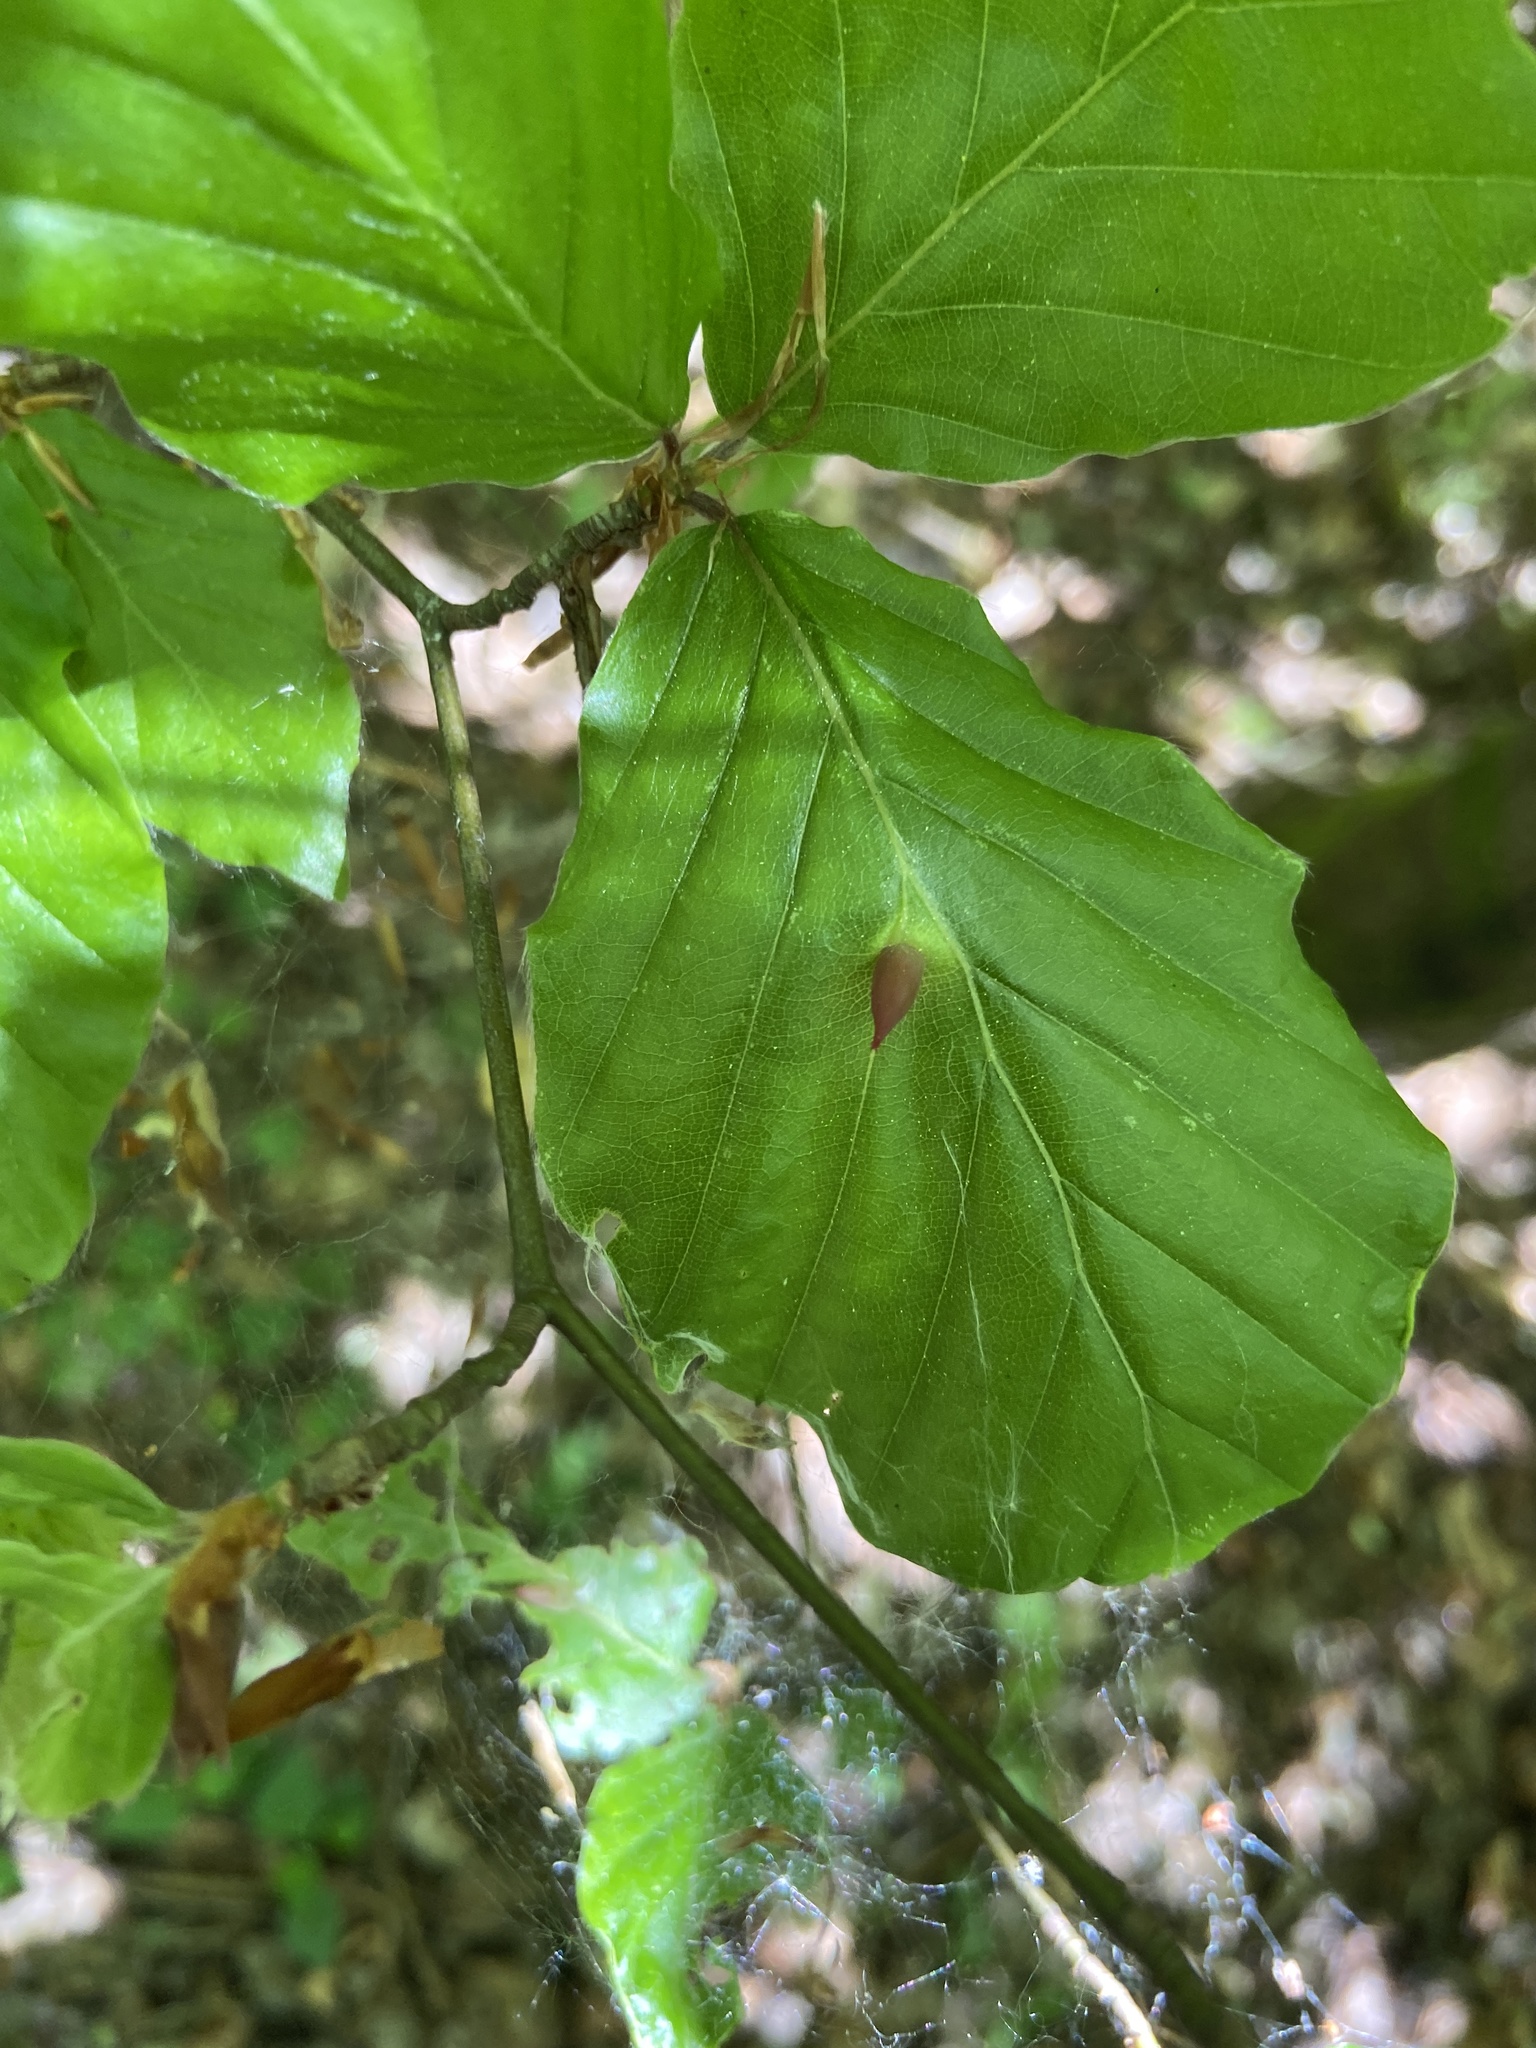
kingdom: Animalia
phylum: Arthropoda
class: Insecta
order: Diptera
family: Cecidomyiidae
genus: Mikiola
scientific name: Mikiola fagi
